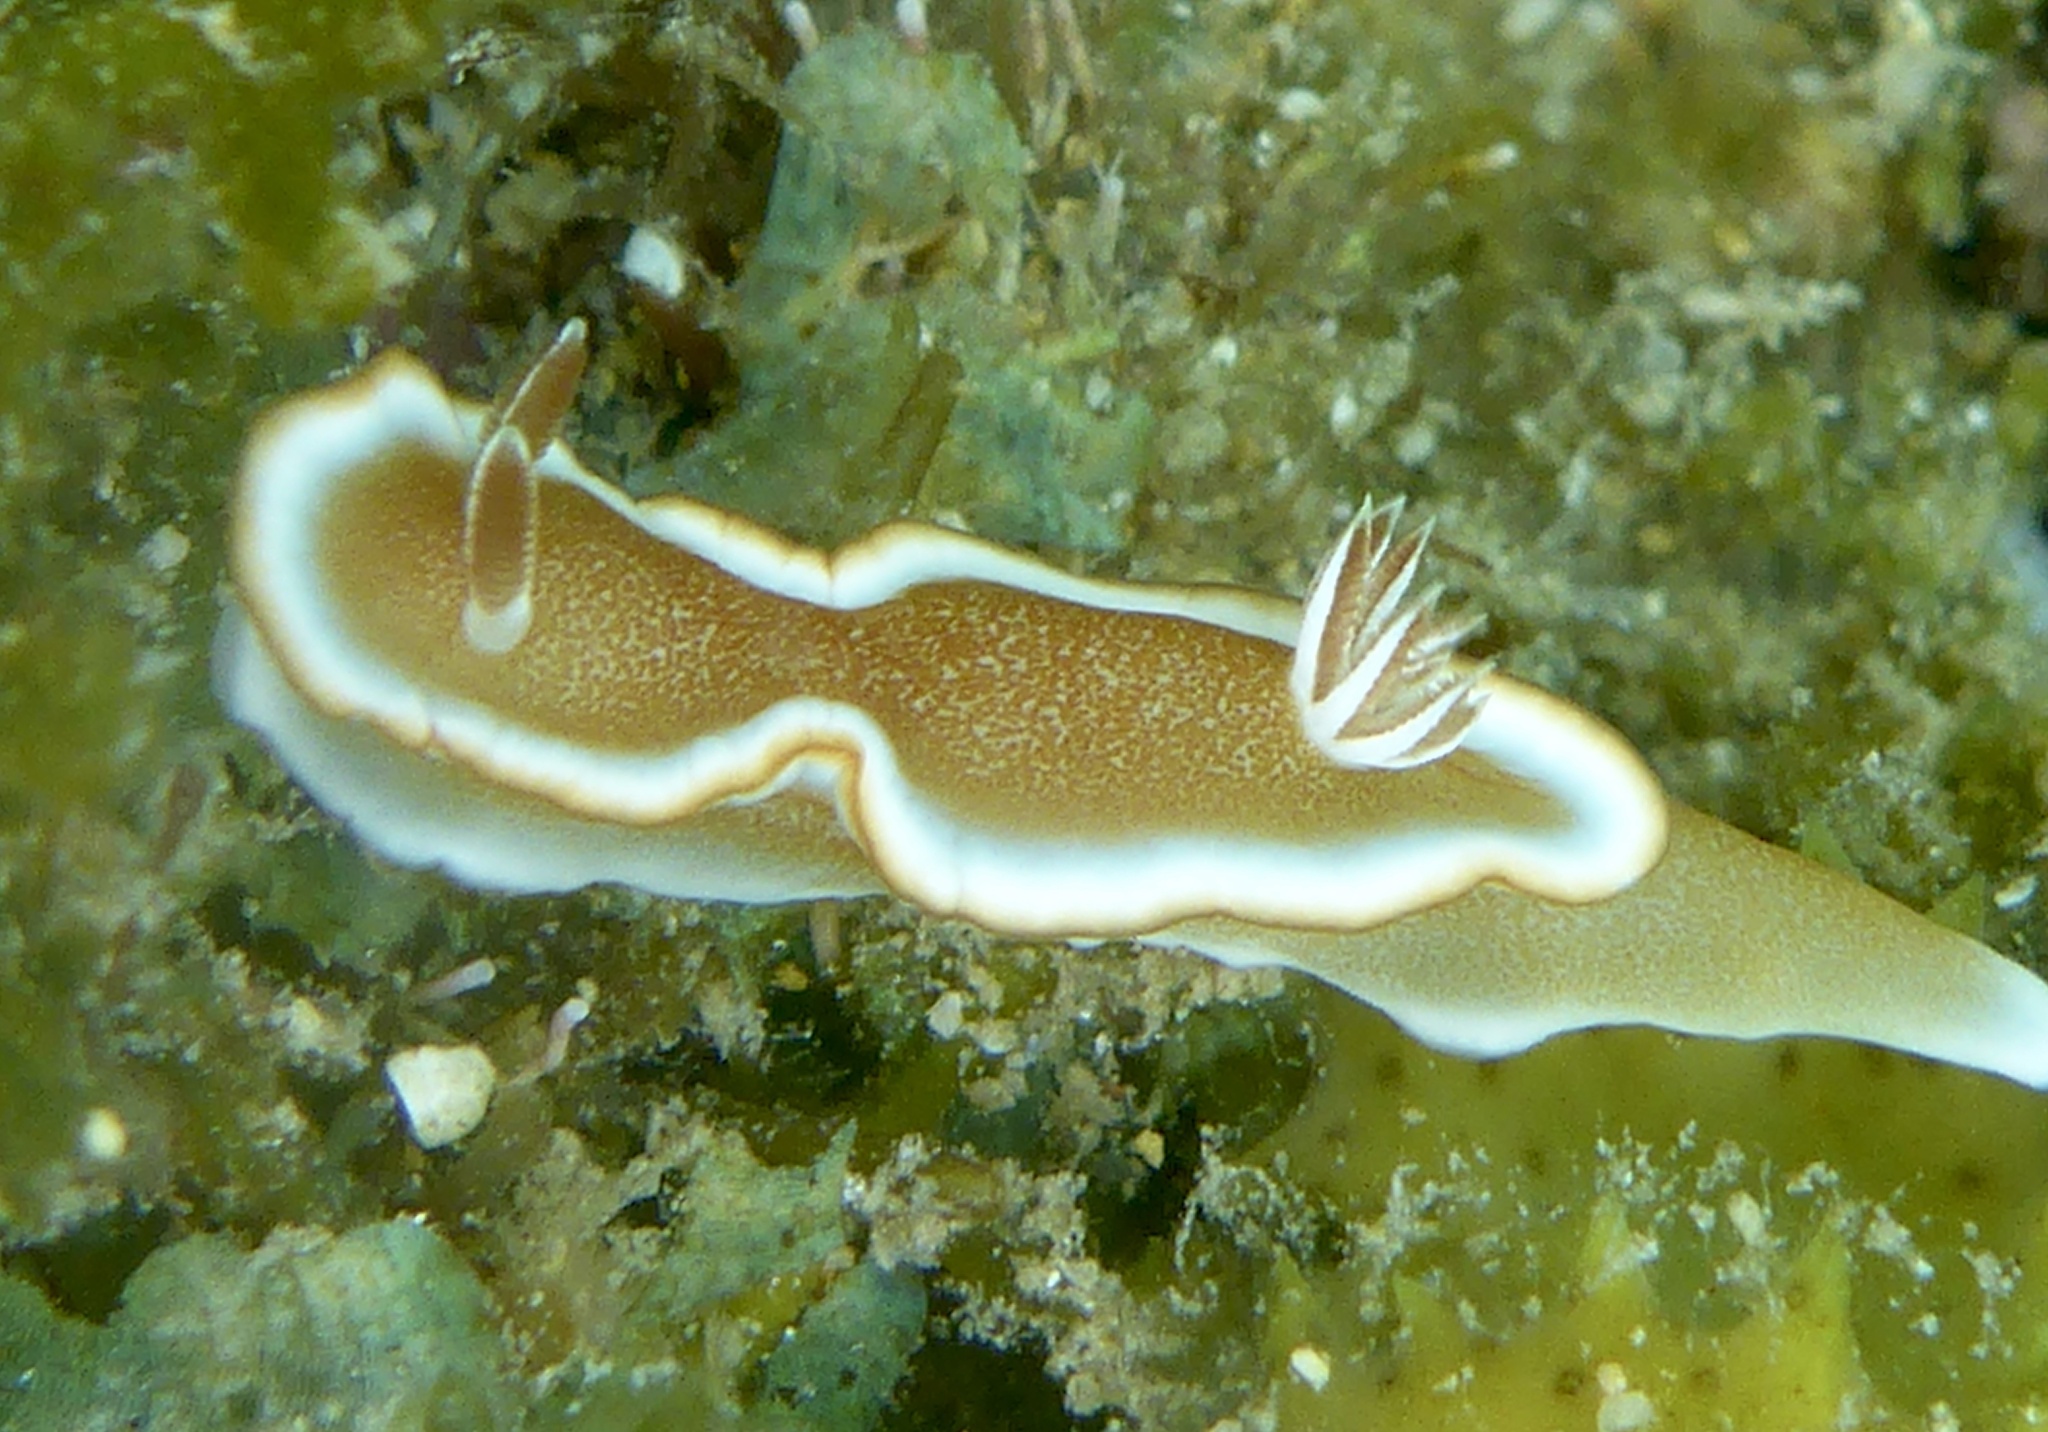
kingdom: Animalia
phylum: Mollusca
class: Gastropoda
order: Nudibranchia
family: Chromodorididae
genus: Glossodoris
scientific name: Glossodoris rufomarginata
